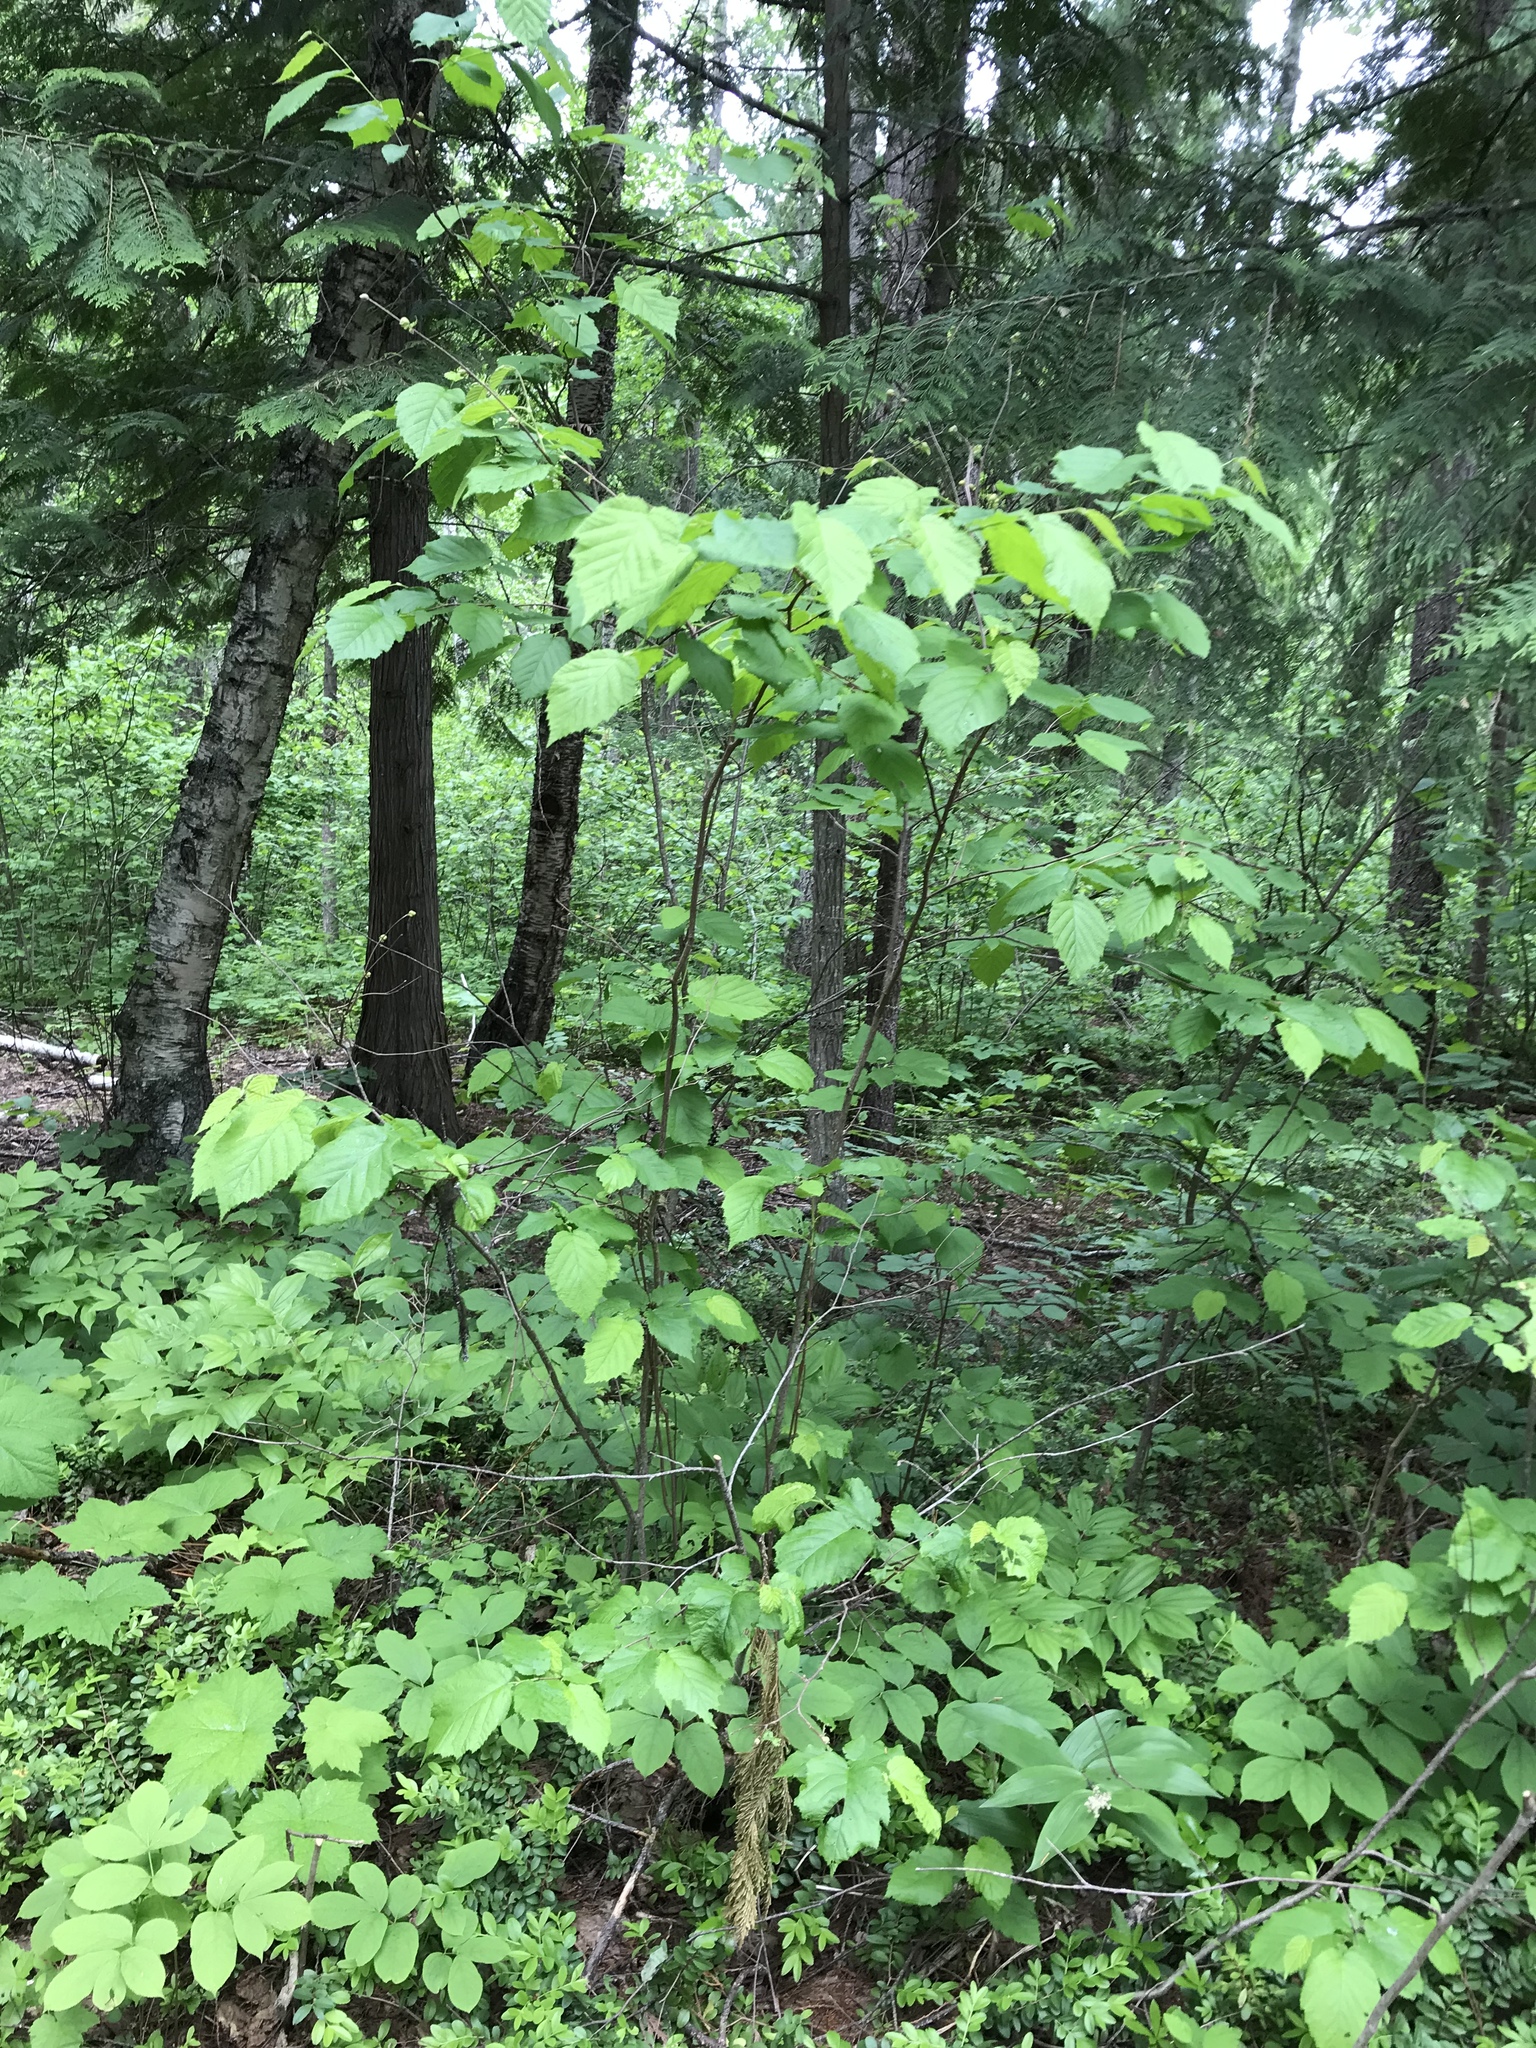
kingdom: Plantae
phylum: Tracheophyta
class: Magnoliopsida
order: Fagales
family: Betulaceae
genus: Corylus
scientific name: Corylus cornuta
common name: Beaked hazel
